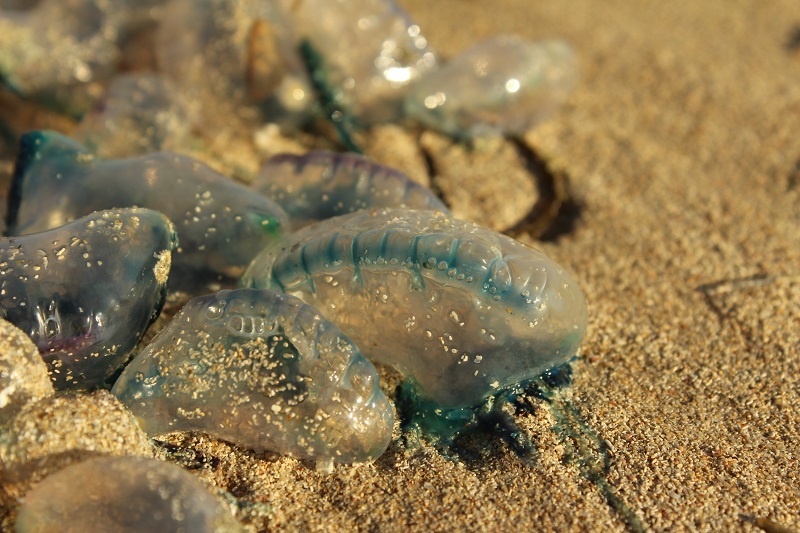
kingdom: Animalia
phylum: Cnidaria
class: Hydrozoa
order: Siphonophorae
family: Physaliidae
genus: Physalia
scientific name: Physalia physalis
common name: Portuguese man-of-war
